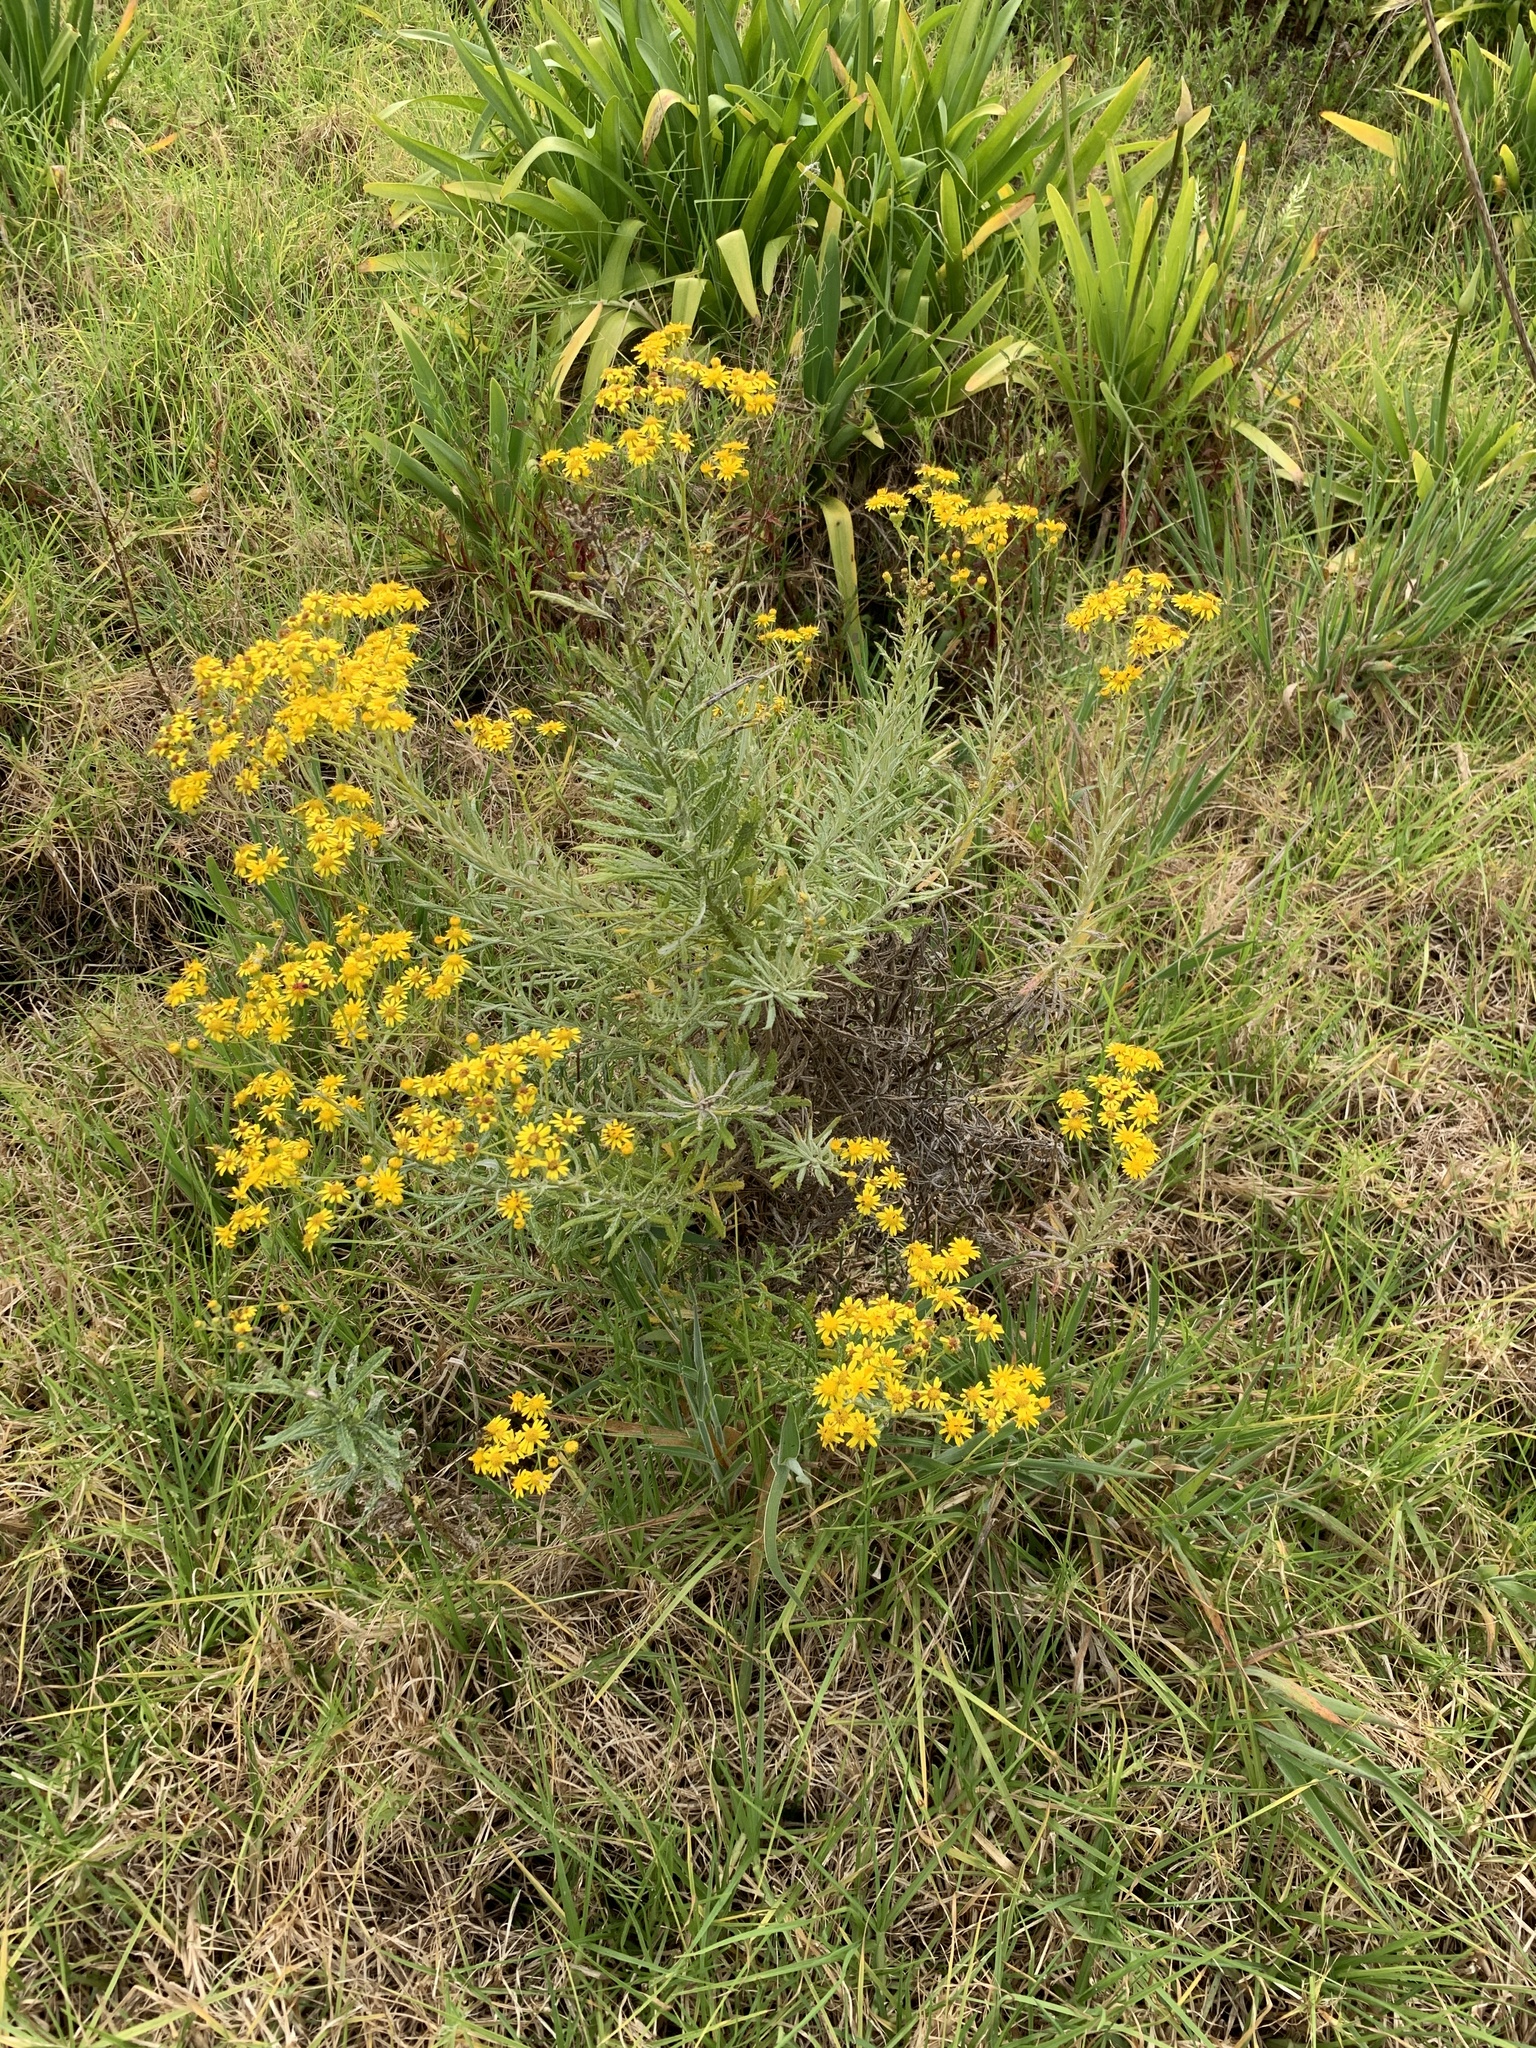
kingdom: Plantae
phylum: Tracheophyta
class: Magnoliopsida
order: Asterales
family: Asteraceae
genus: Senecio
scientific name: Senecio pterophorus
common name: Shoddy ragwort
